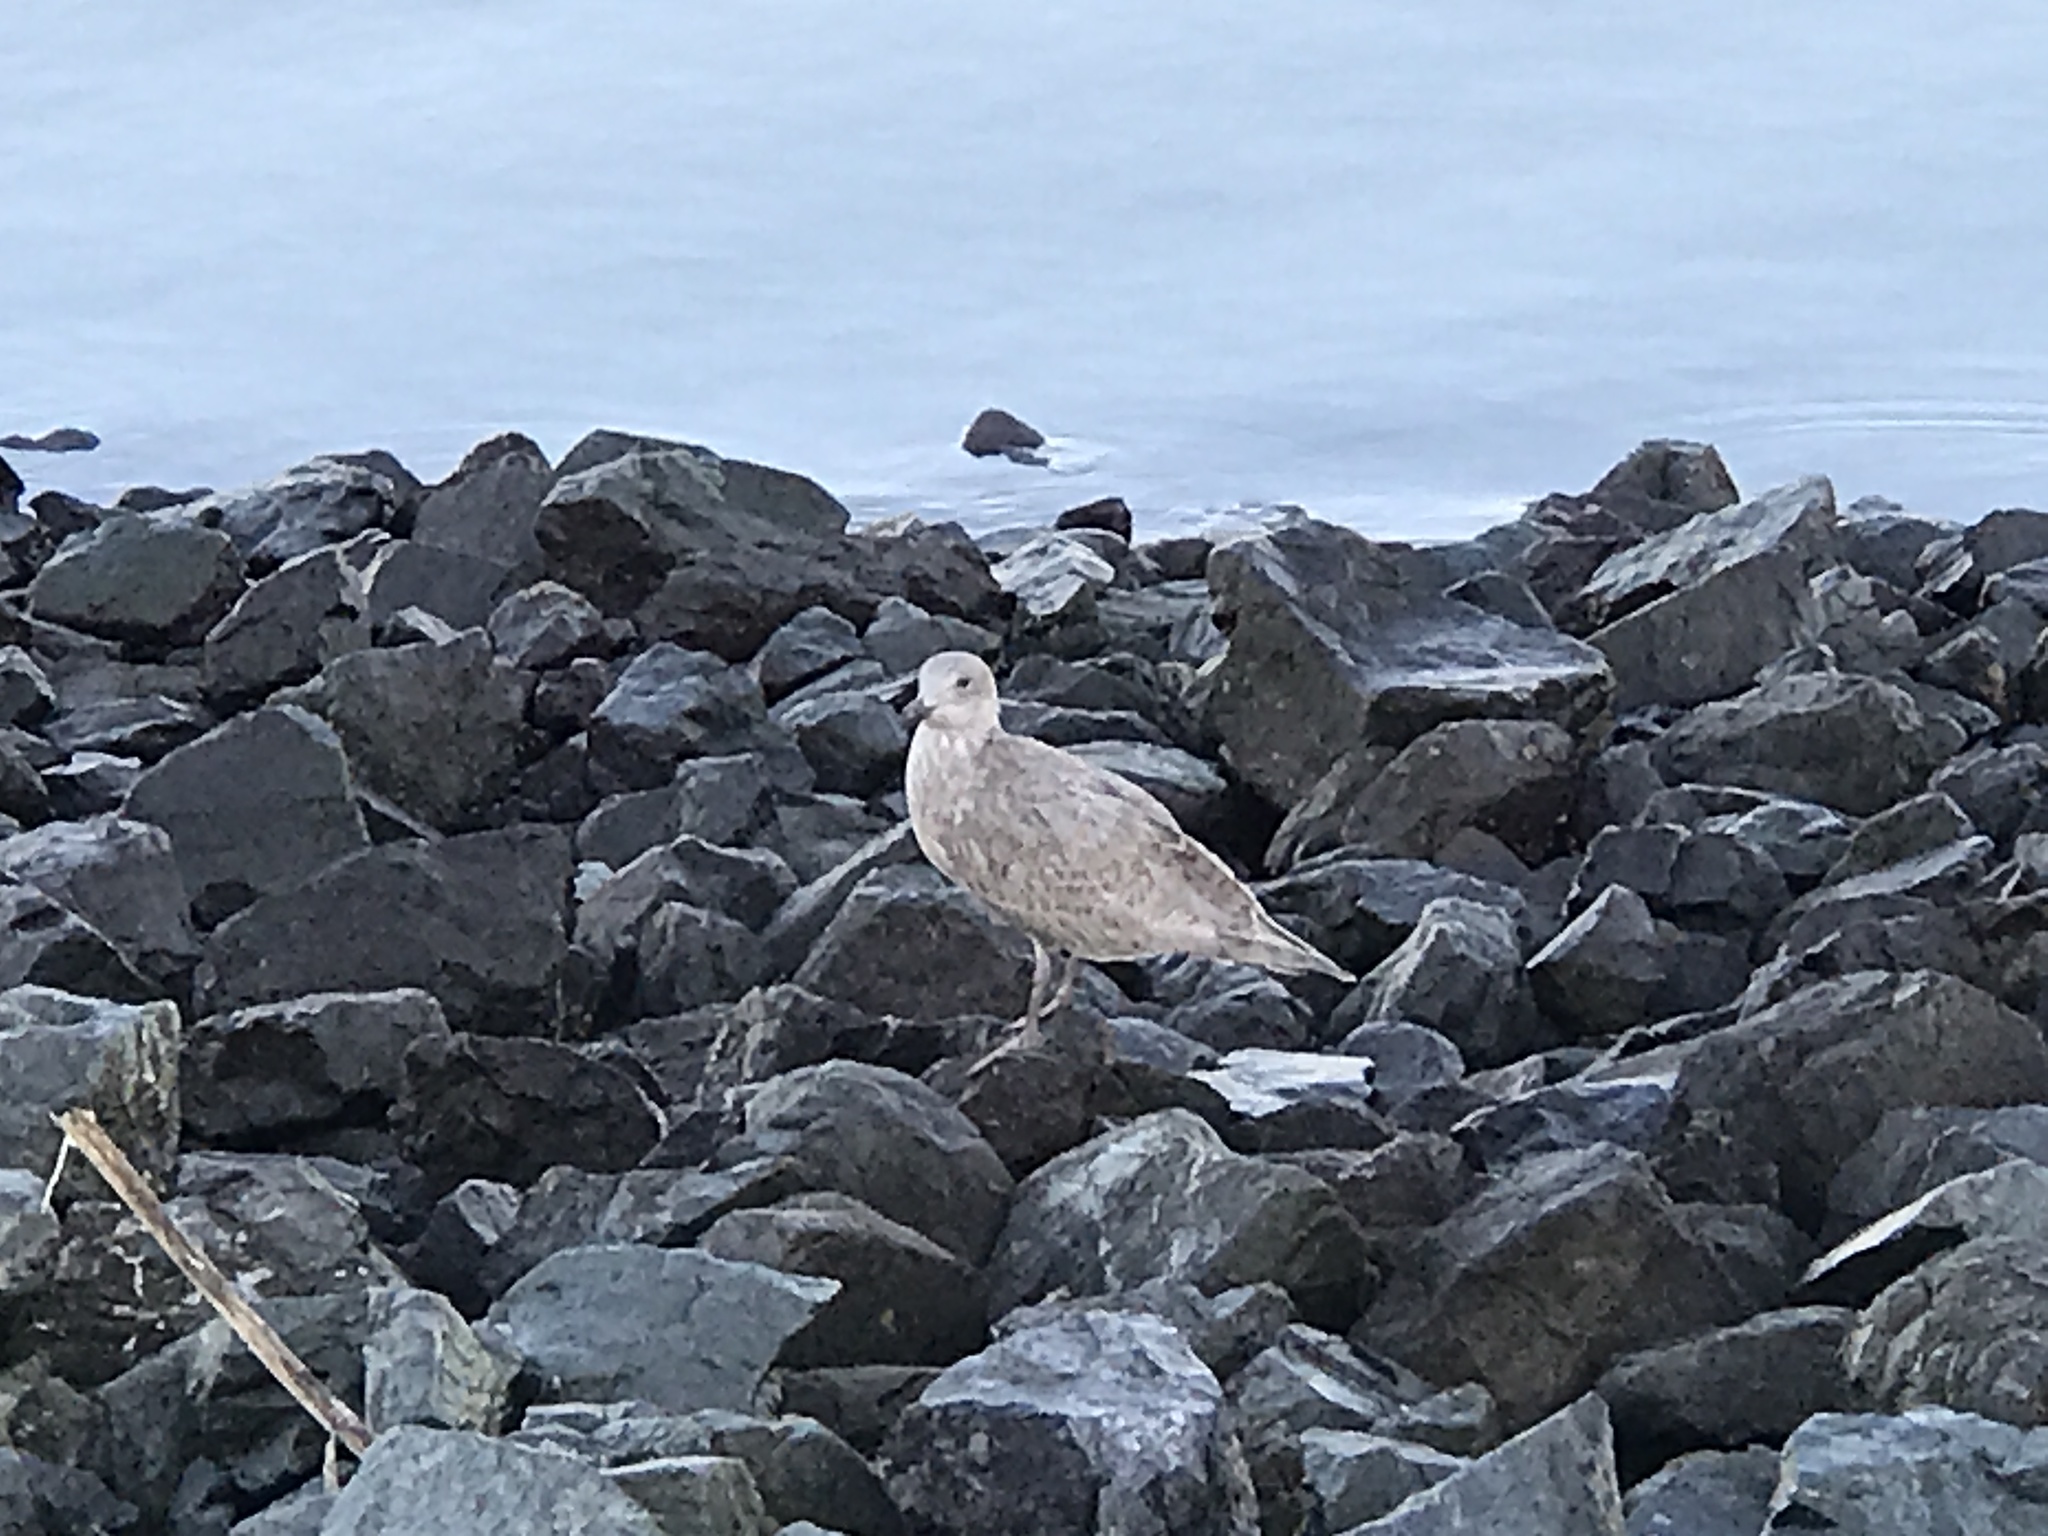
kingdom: Animalia
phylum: Chordata
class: Aves
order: Charadriiformes
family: Laridae
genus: Larus
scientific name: Larus glaucescens
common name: Glaucous-winged gull
